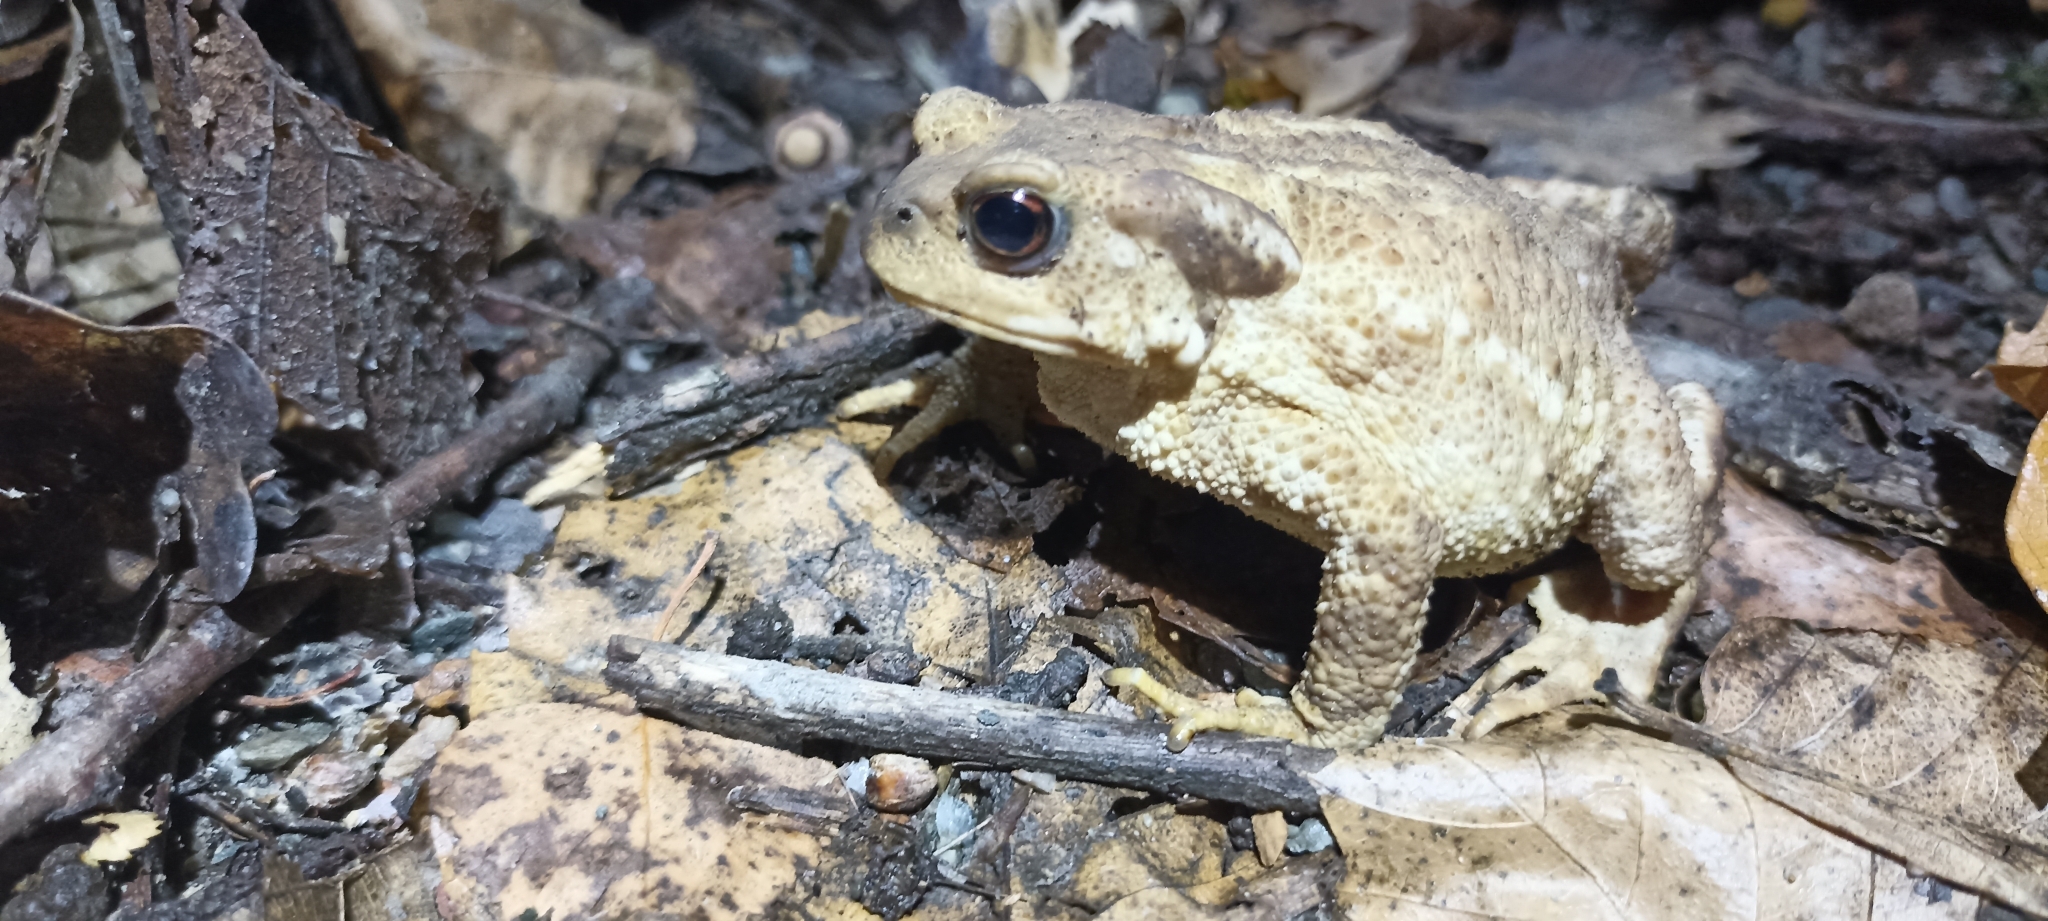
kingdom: Animalia
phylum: Chordata
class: Amphibia
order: Anura
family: Bufonidae
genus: Bufo
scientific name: Bufo spinosus
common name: Western common toad
